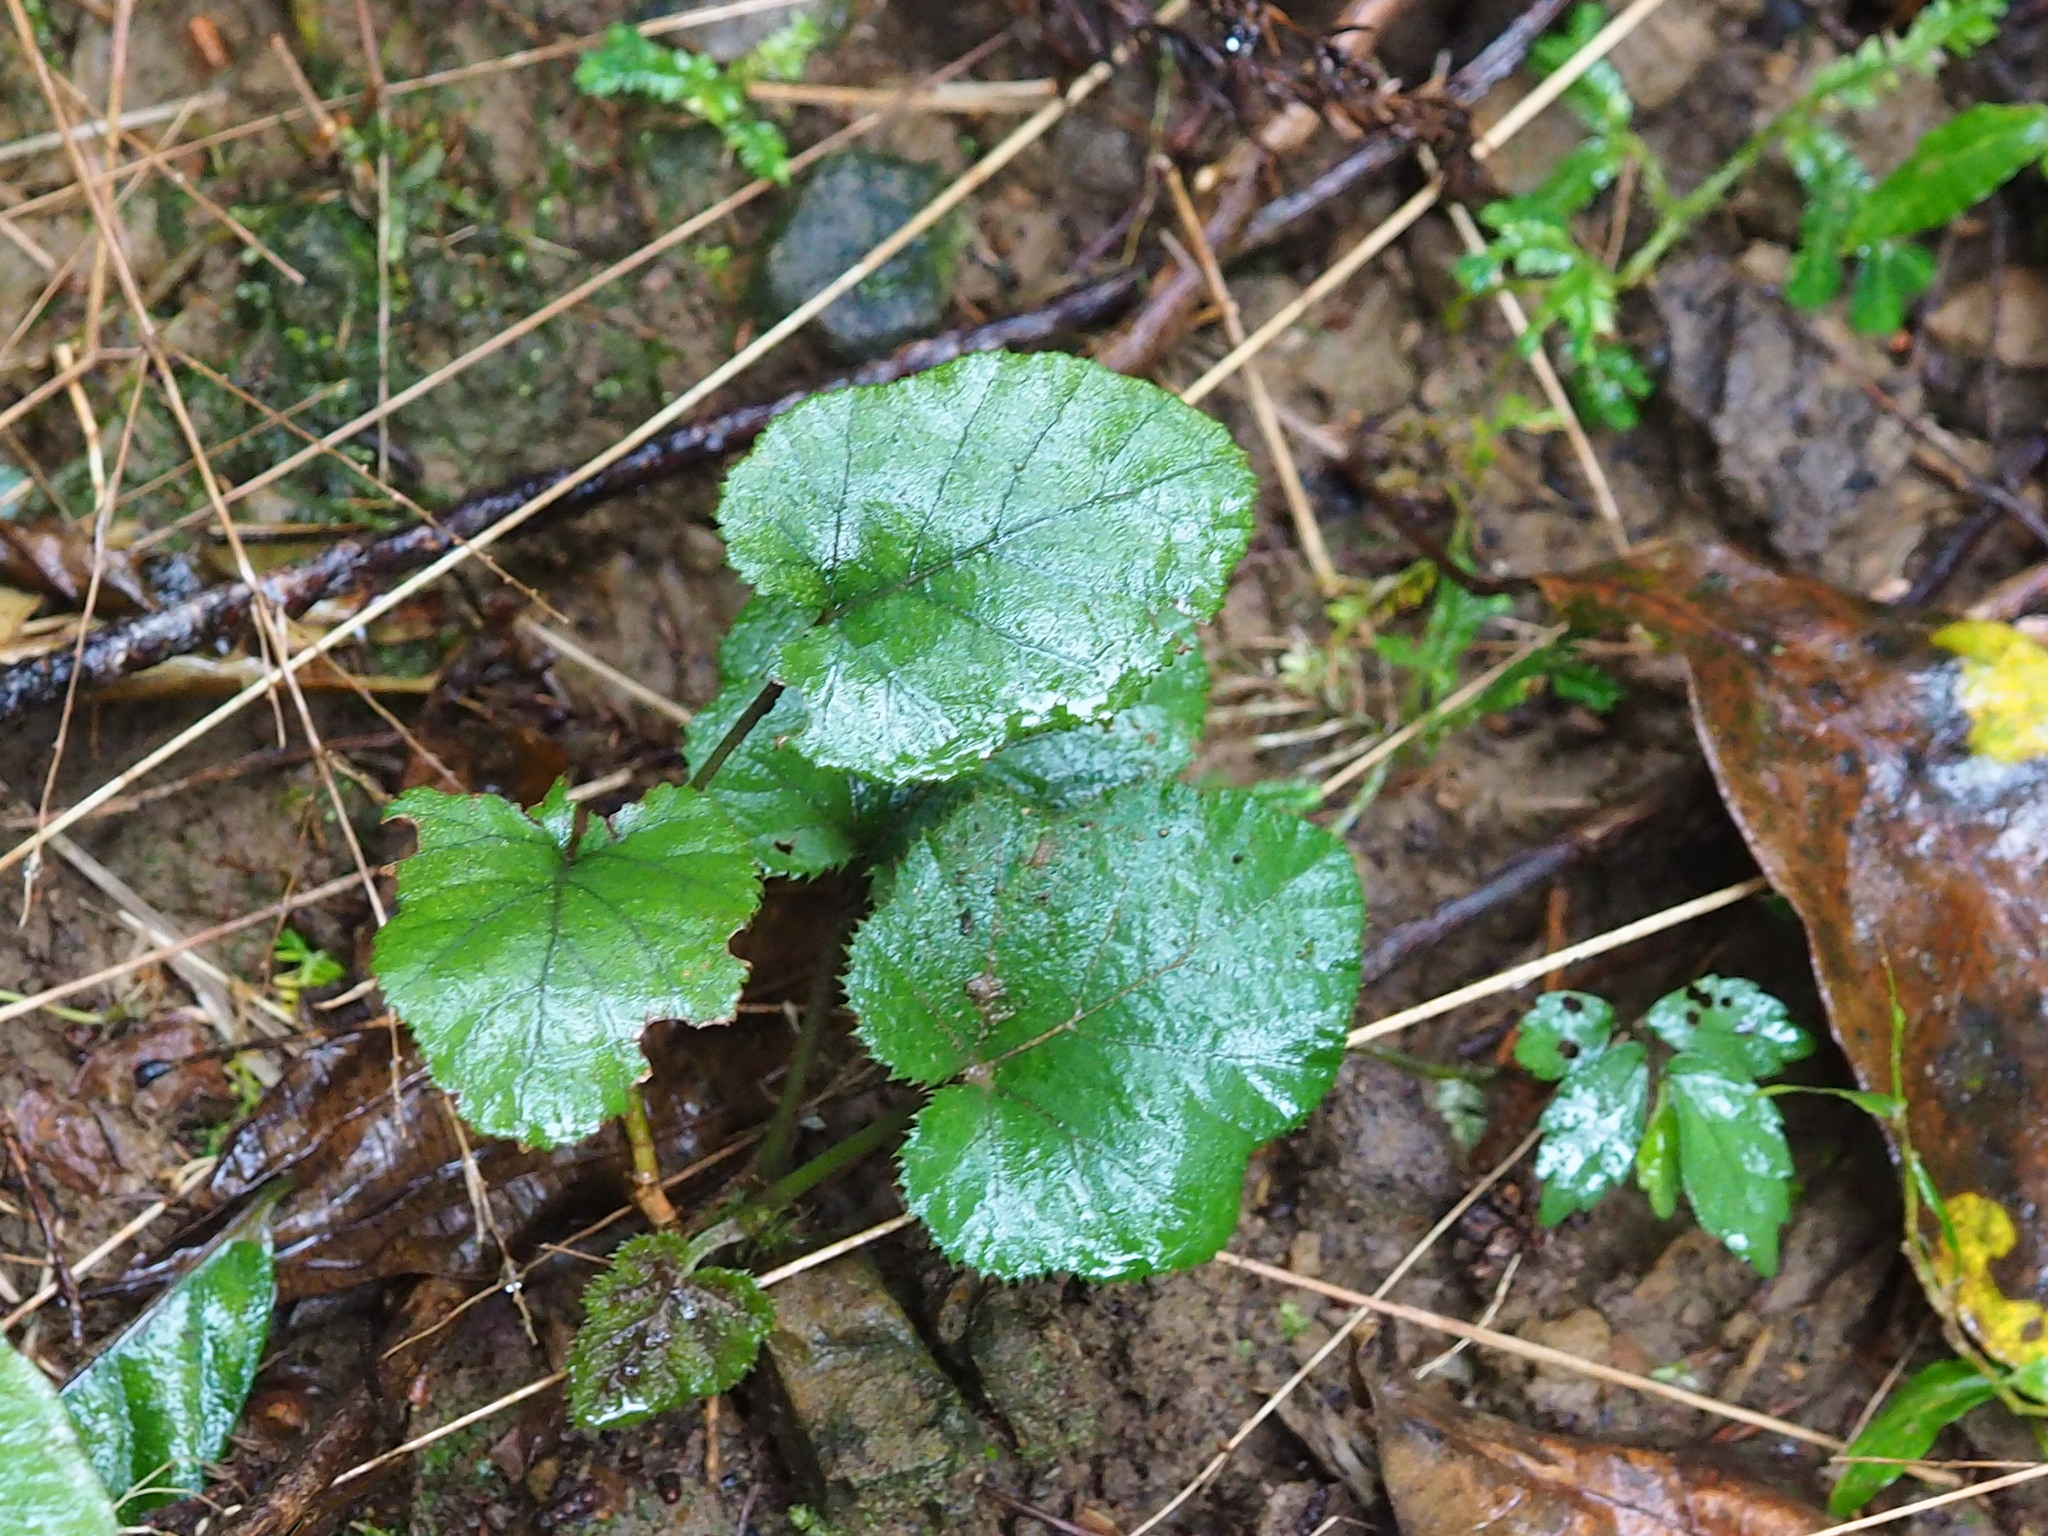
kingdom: Plantae
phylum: Tracheophyta
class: Magnoliopsida
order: Rosales
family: Rosaceae
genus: Rubus
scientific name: Rubus buergeri
